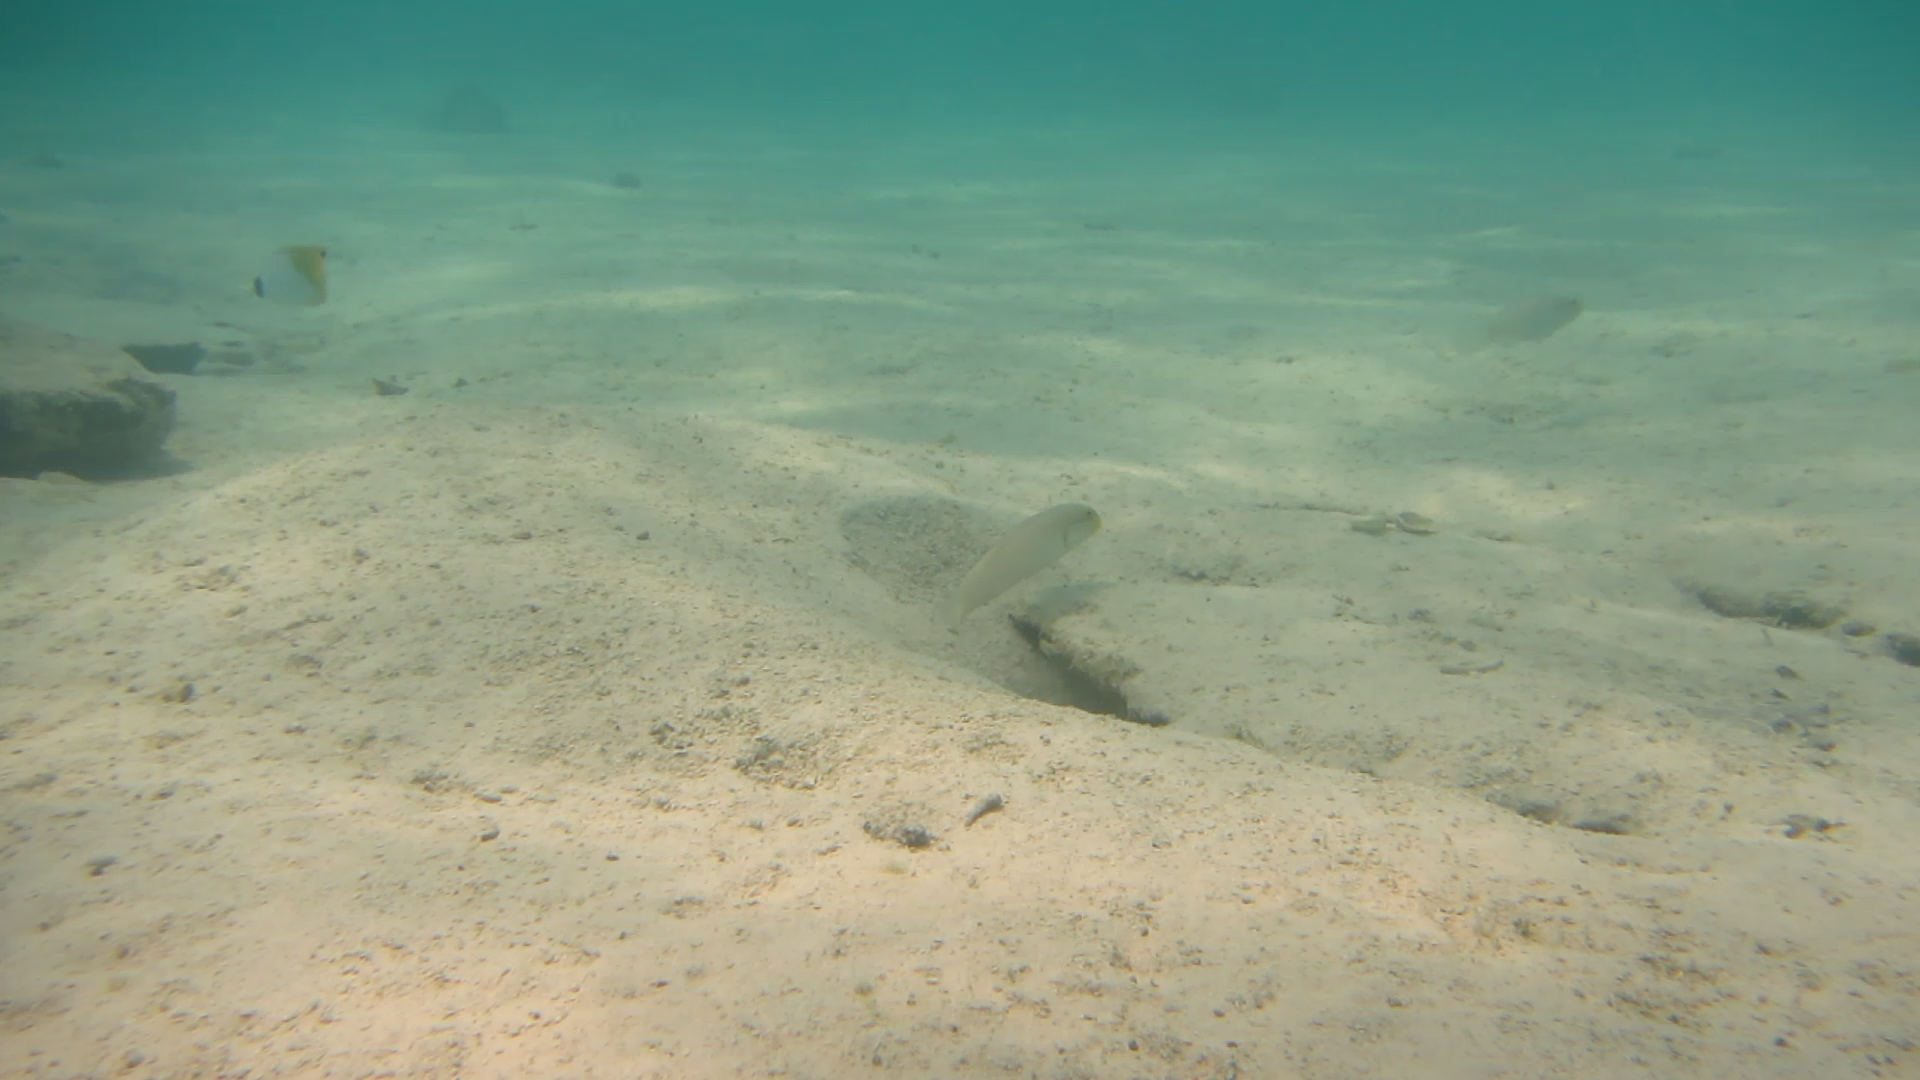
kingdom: Animalia
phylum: Chordata
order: Perciformes
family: Gobiidae
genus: Valenciennea
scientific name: Valenciennea strigata
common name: Blueband goby
